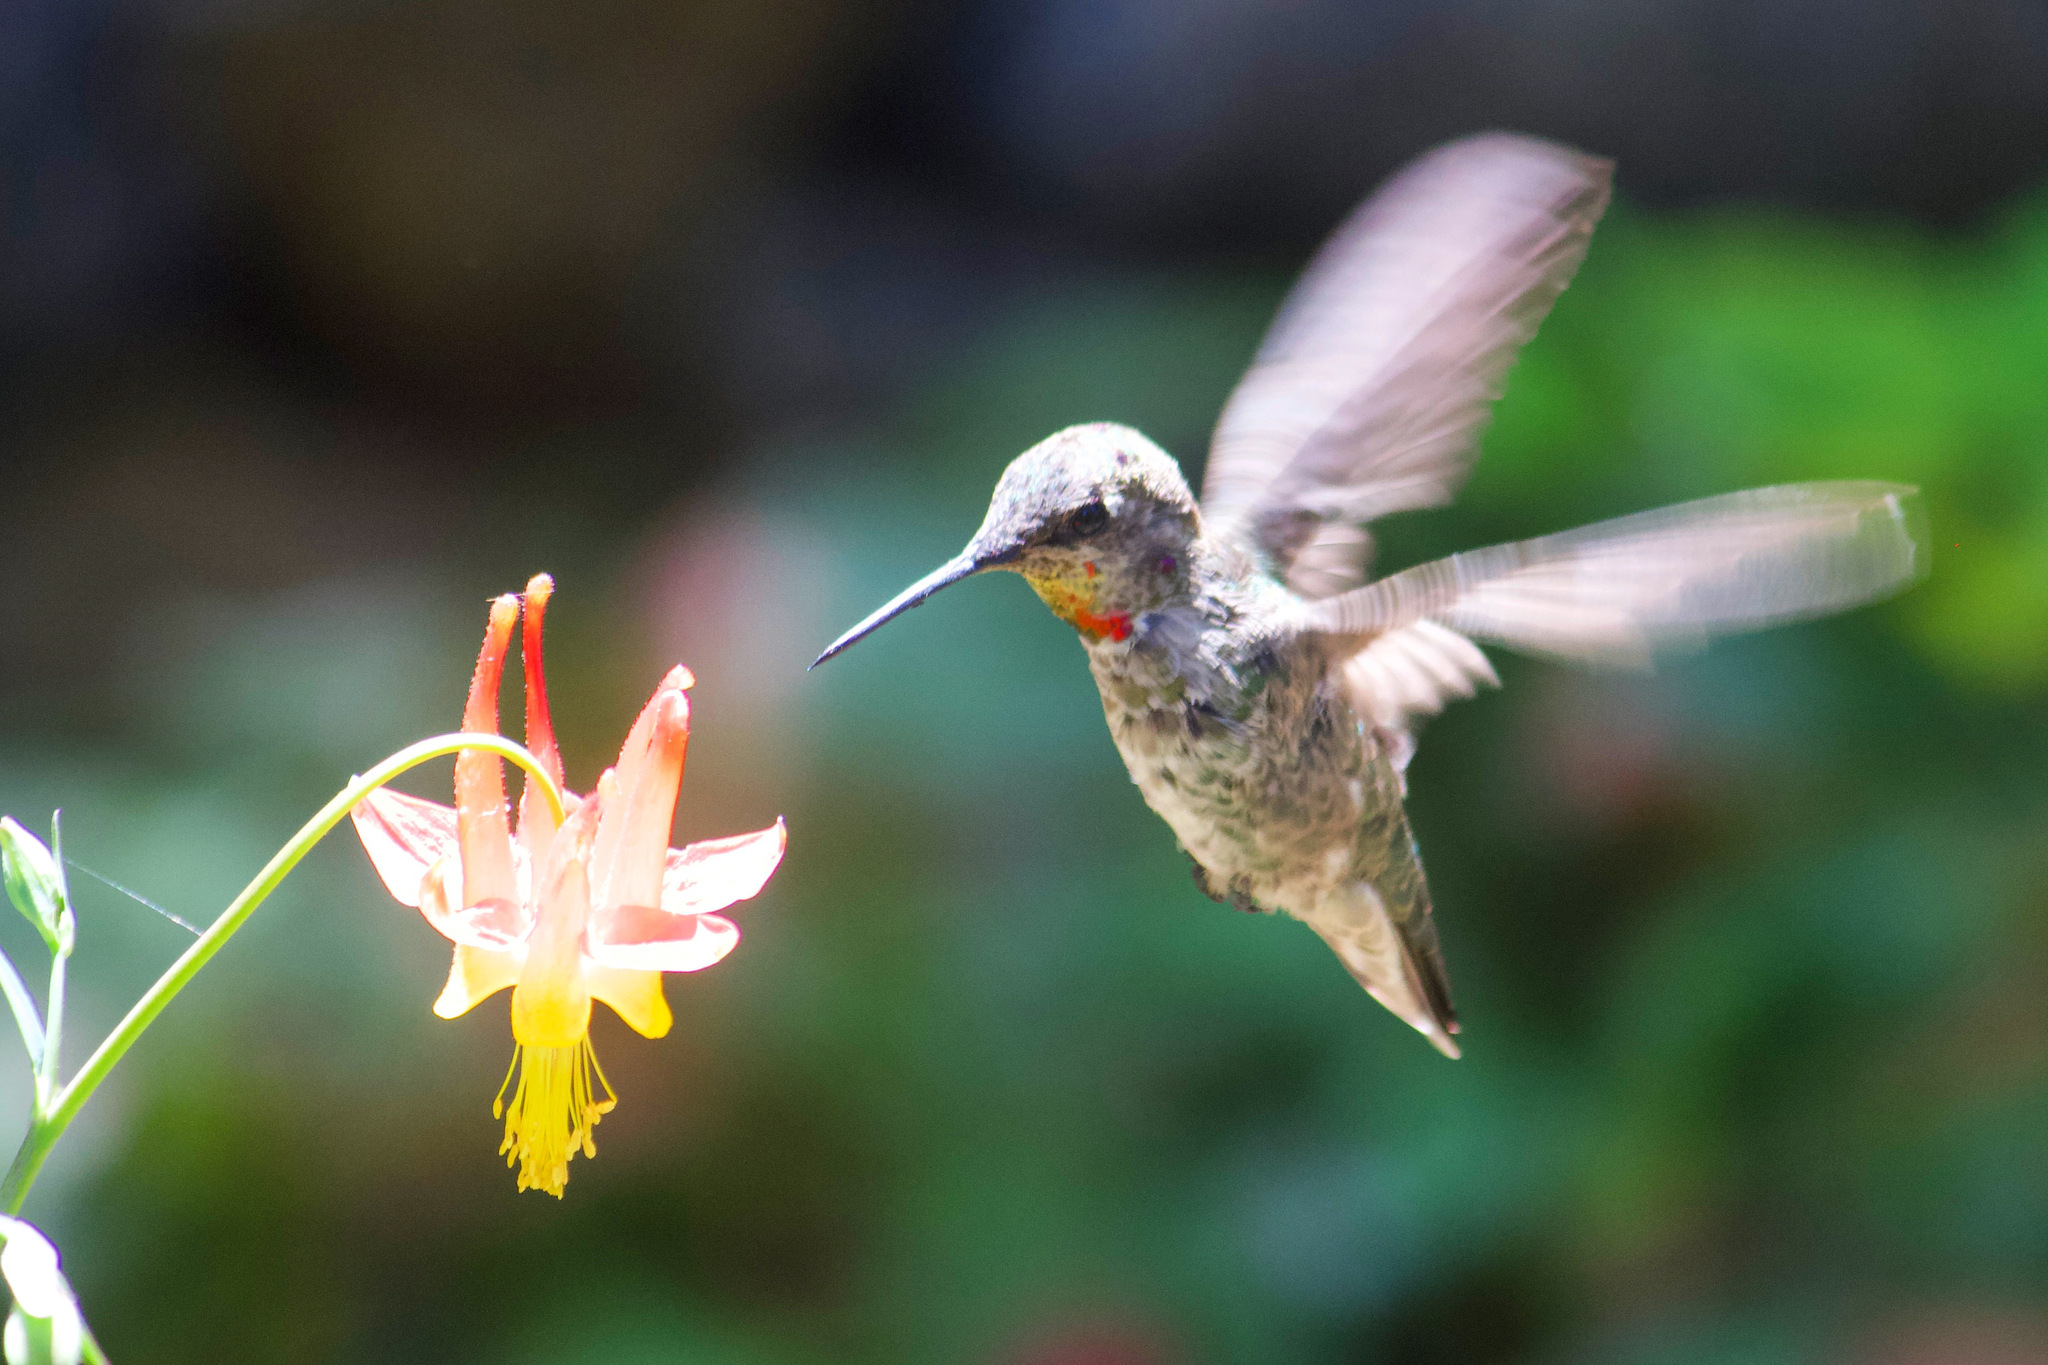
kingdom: Animalia
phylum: Chordata
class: Aves
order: Apodiformes
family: Trochilidae
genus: Calypte
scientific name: Calypte anna
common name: Anna's hummingbird
